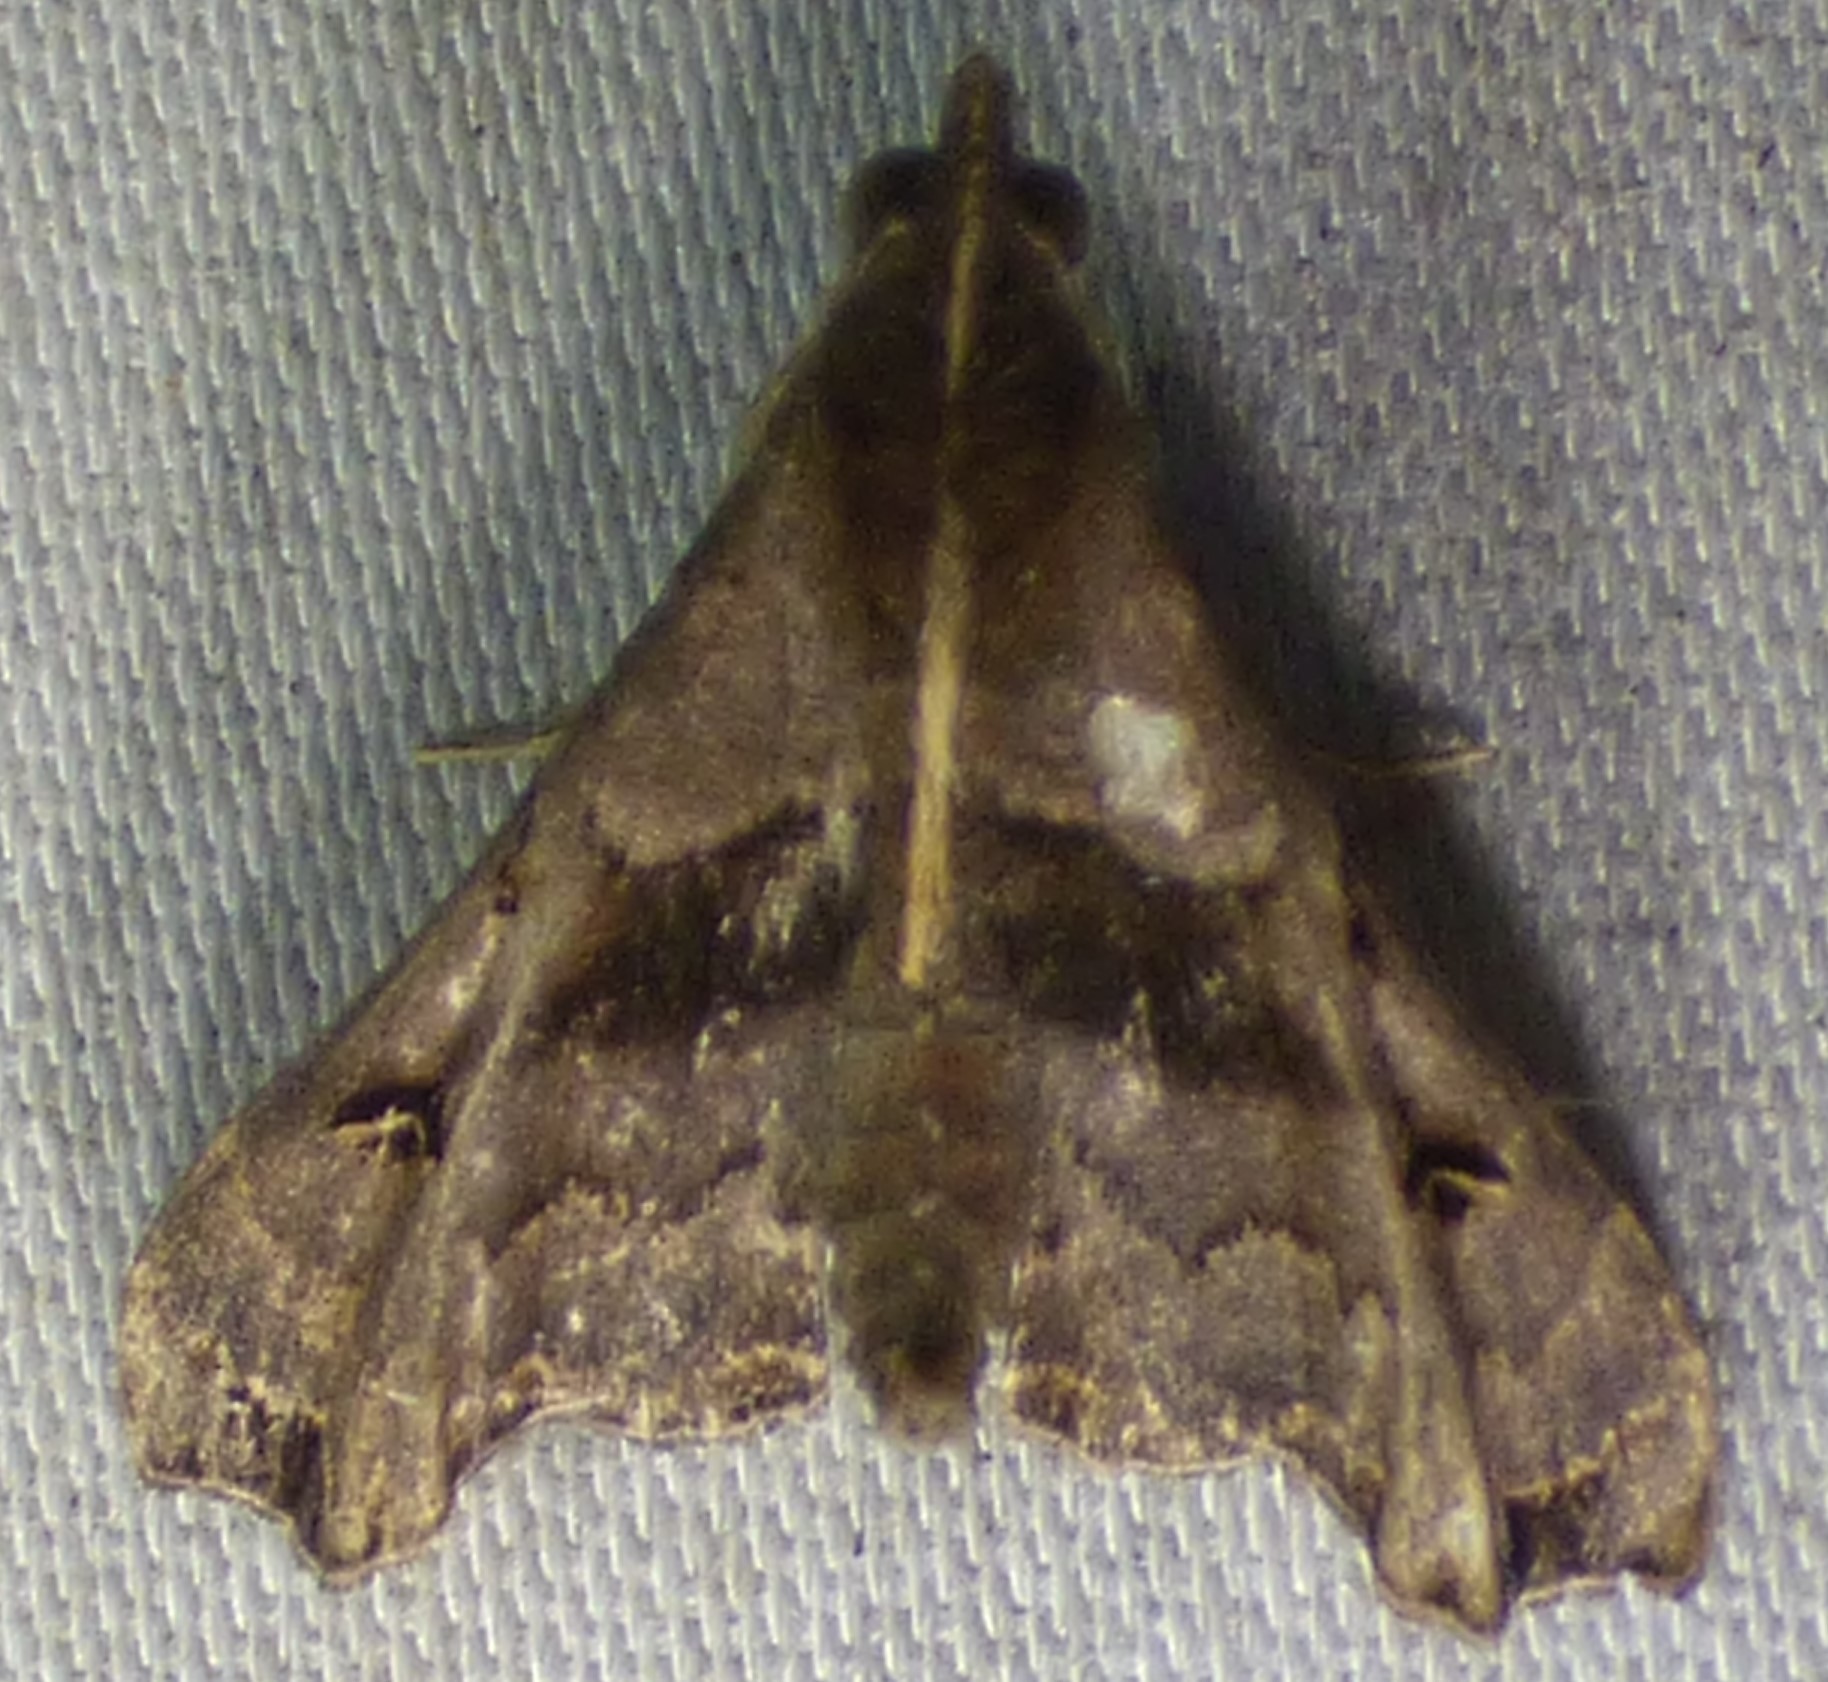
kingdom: Animalia
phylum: Arthropoda
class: Insecta
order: Lepidoptera
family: Erebidae
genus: Palthis
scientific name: Palthis asopialis
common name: Faint-spotted palthis moth
